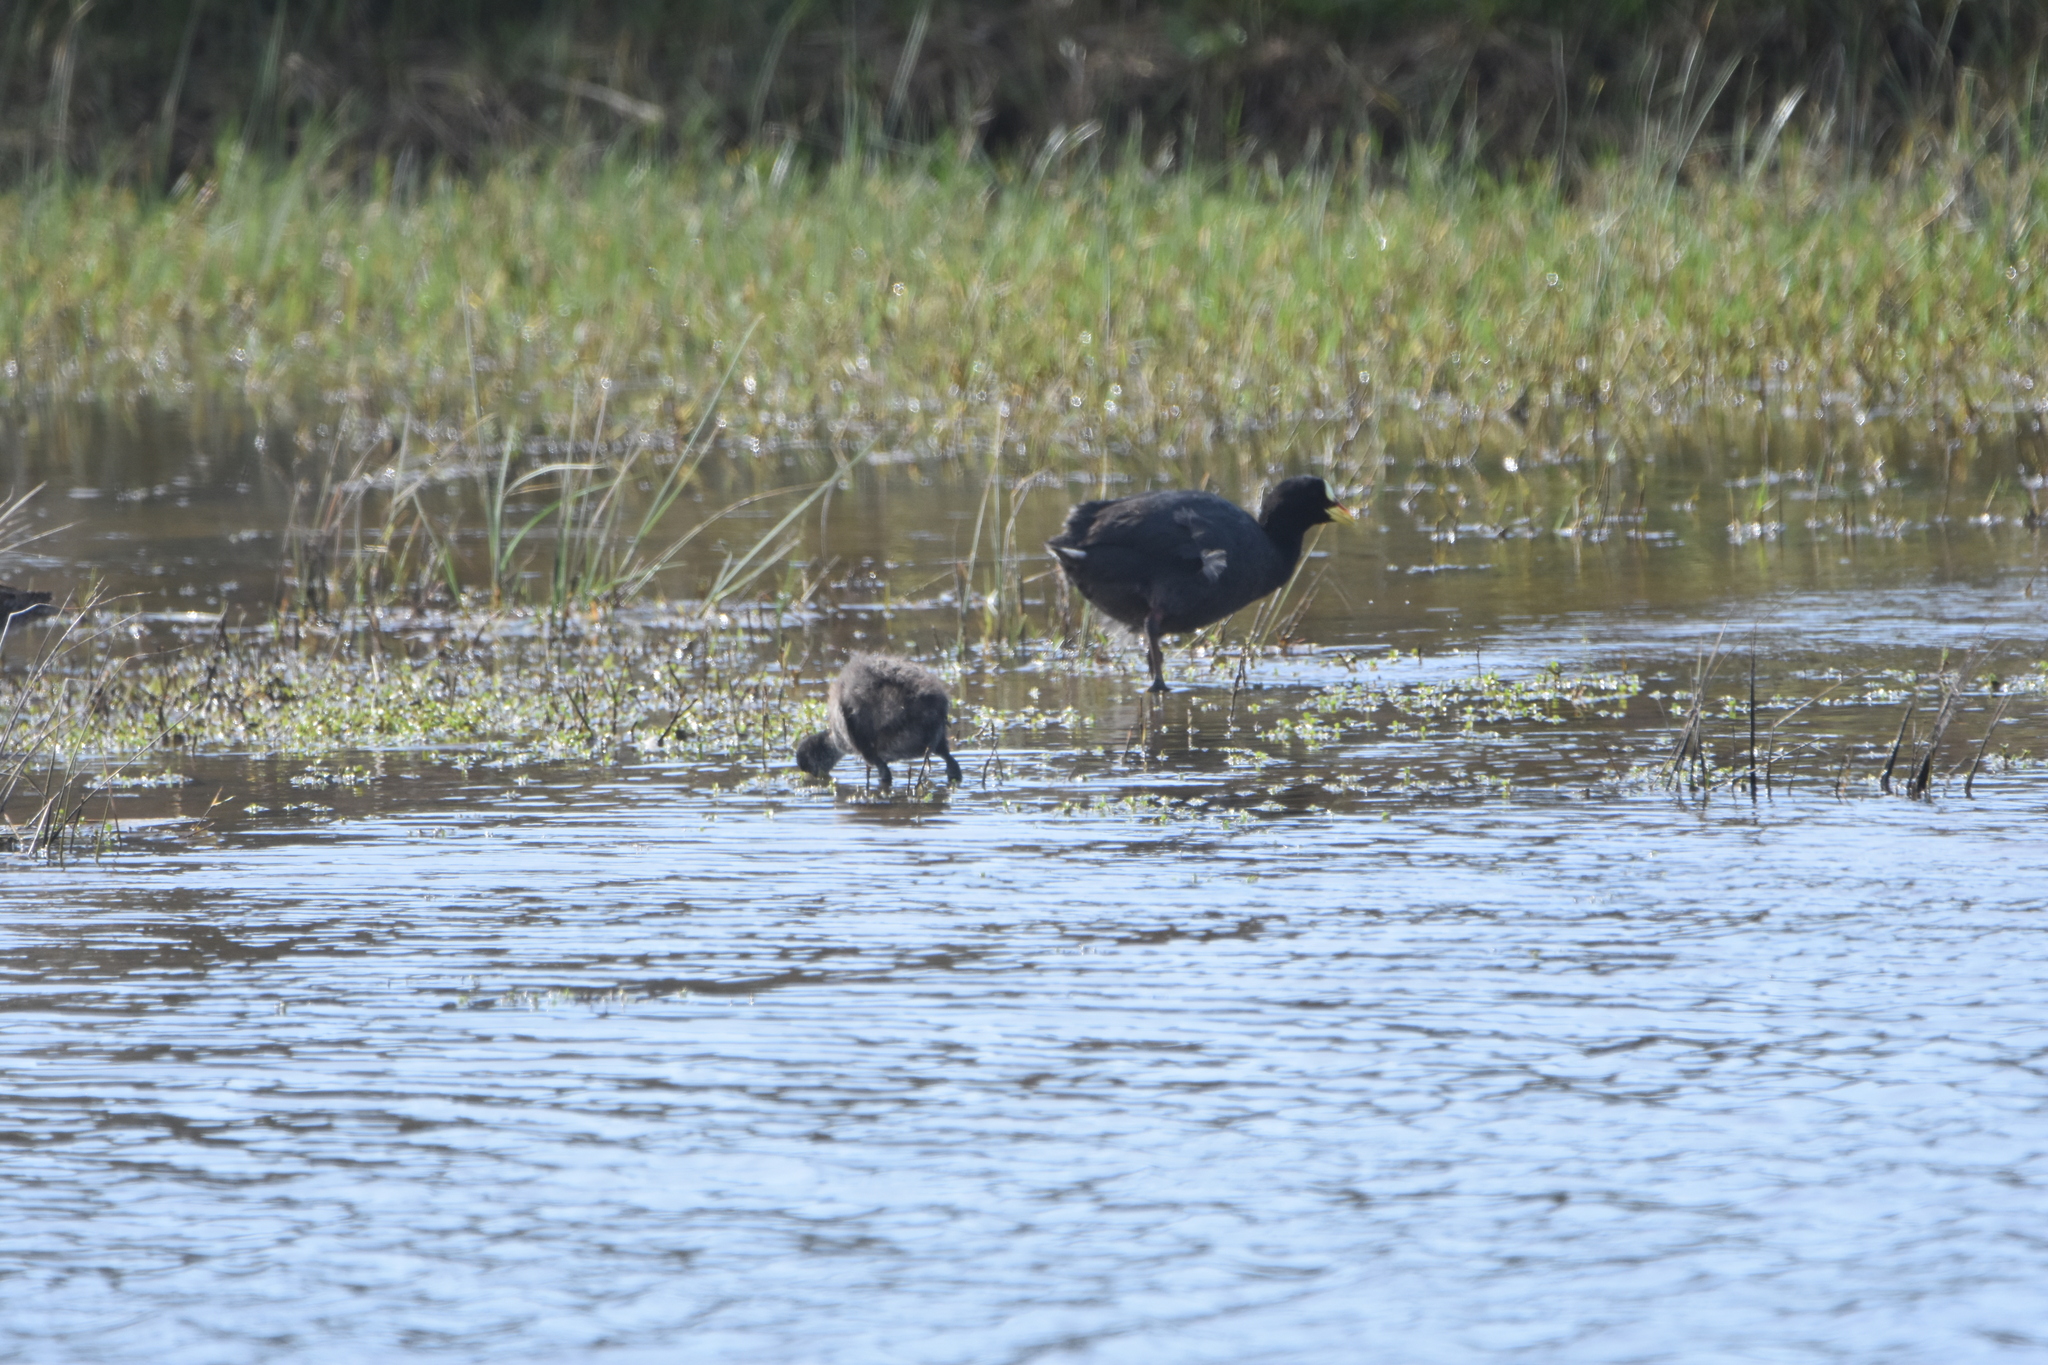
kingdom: Animalia
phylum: Chordata
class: Aves
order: Gruiformes
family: Rallidae
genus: Fulica
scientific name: Fulica armillata
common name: Red-gartered coot
